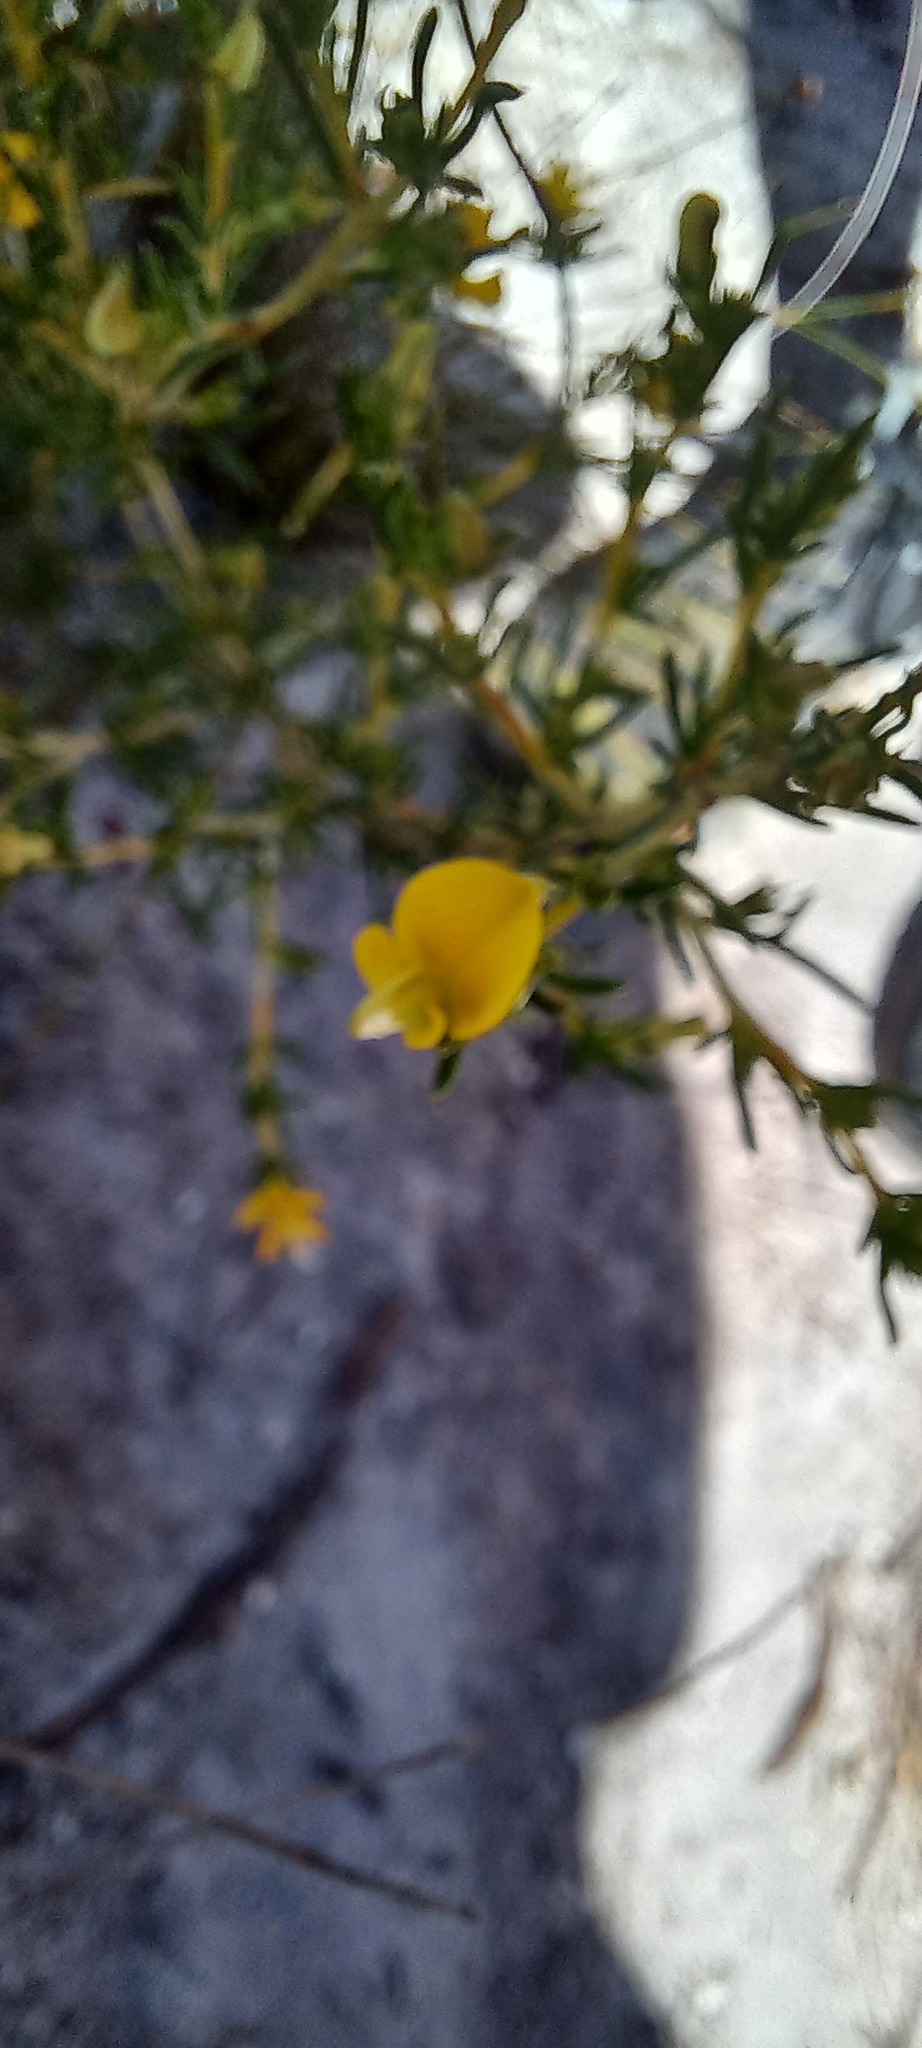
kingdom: Plantae
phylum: Tracheophyta
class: Magnoliopsida
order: Fabales
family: Fabaceae
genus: Aspalathus
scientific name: Aspalathus acuminata
